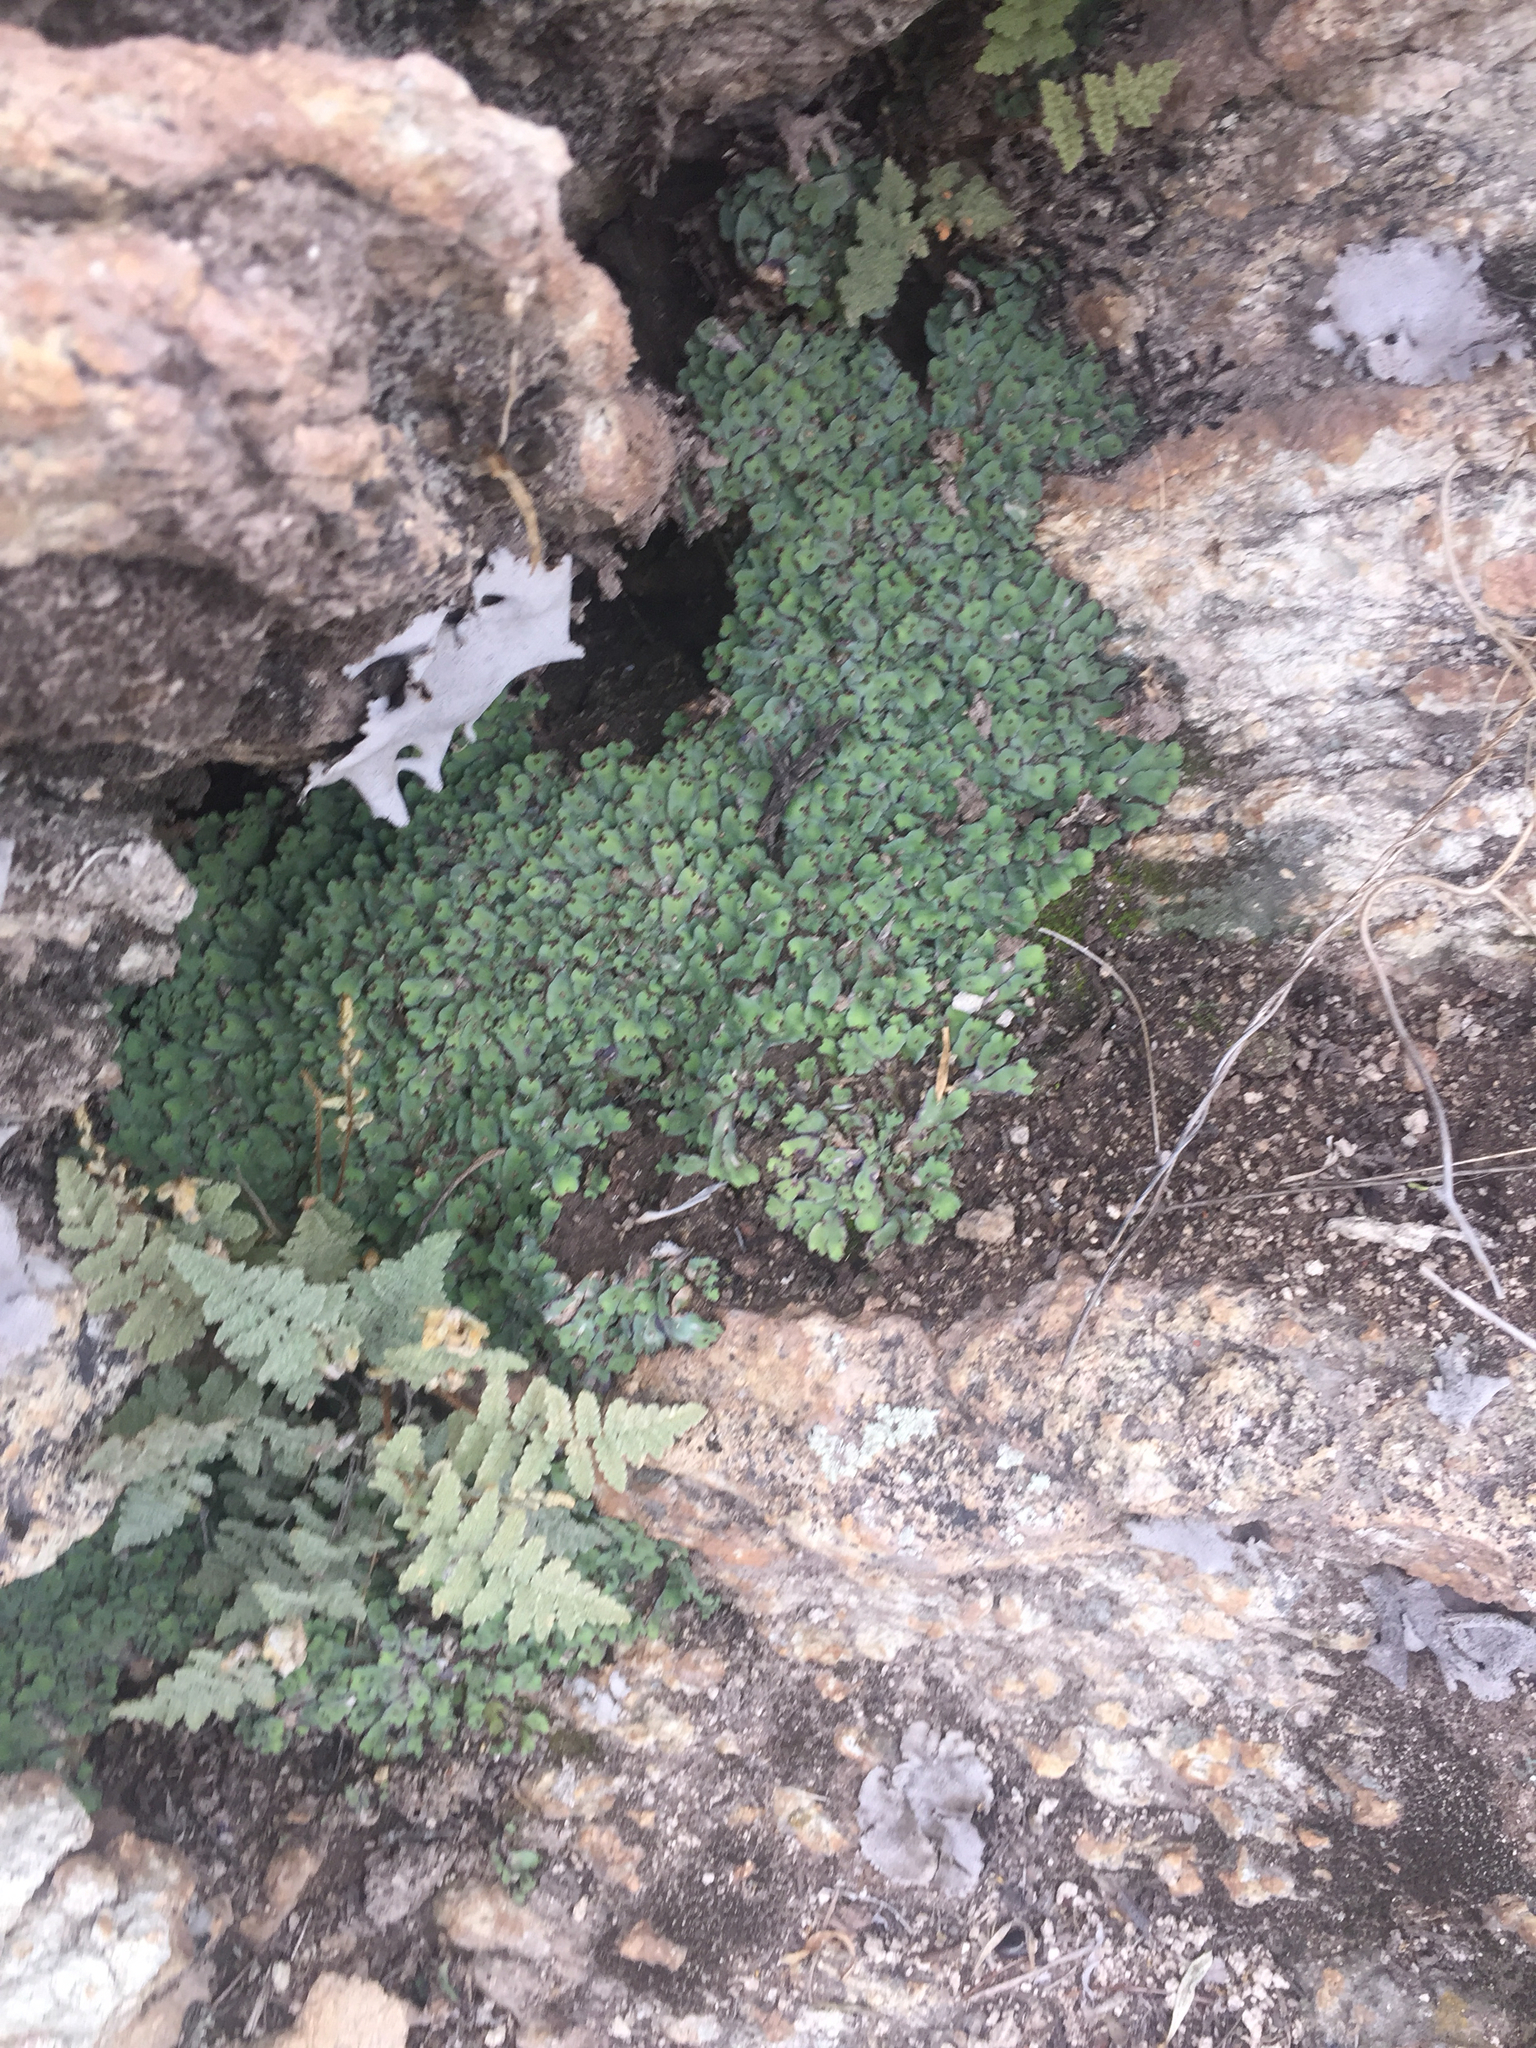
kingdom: Plantae
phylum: Tracheophyta
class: Polypodiopsida
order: Polypodiales
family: Pteridaceae
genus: Myriopteris
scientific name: Myriopteris rufa
